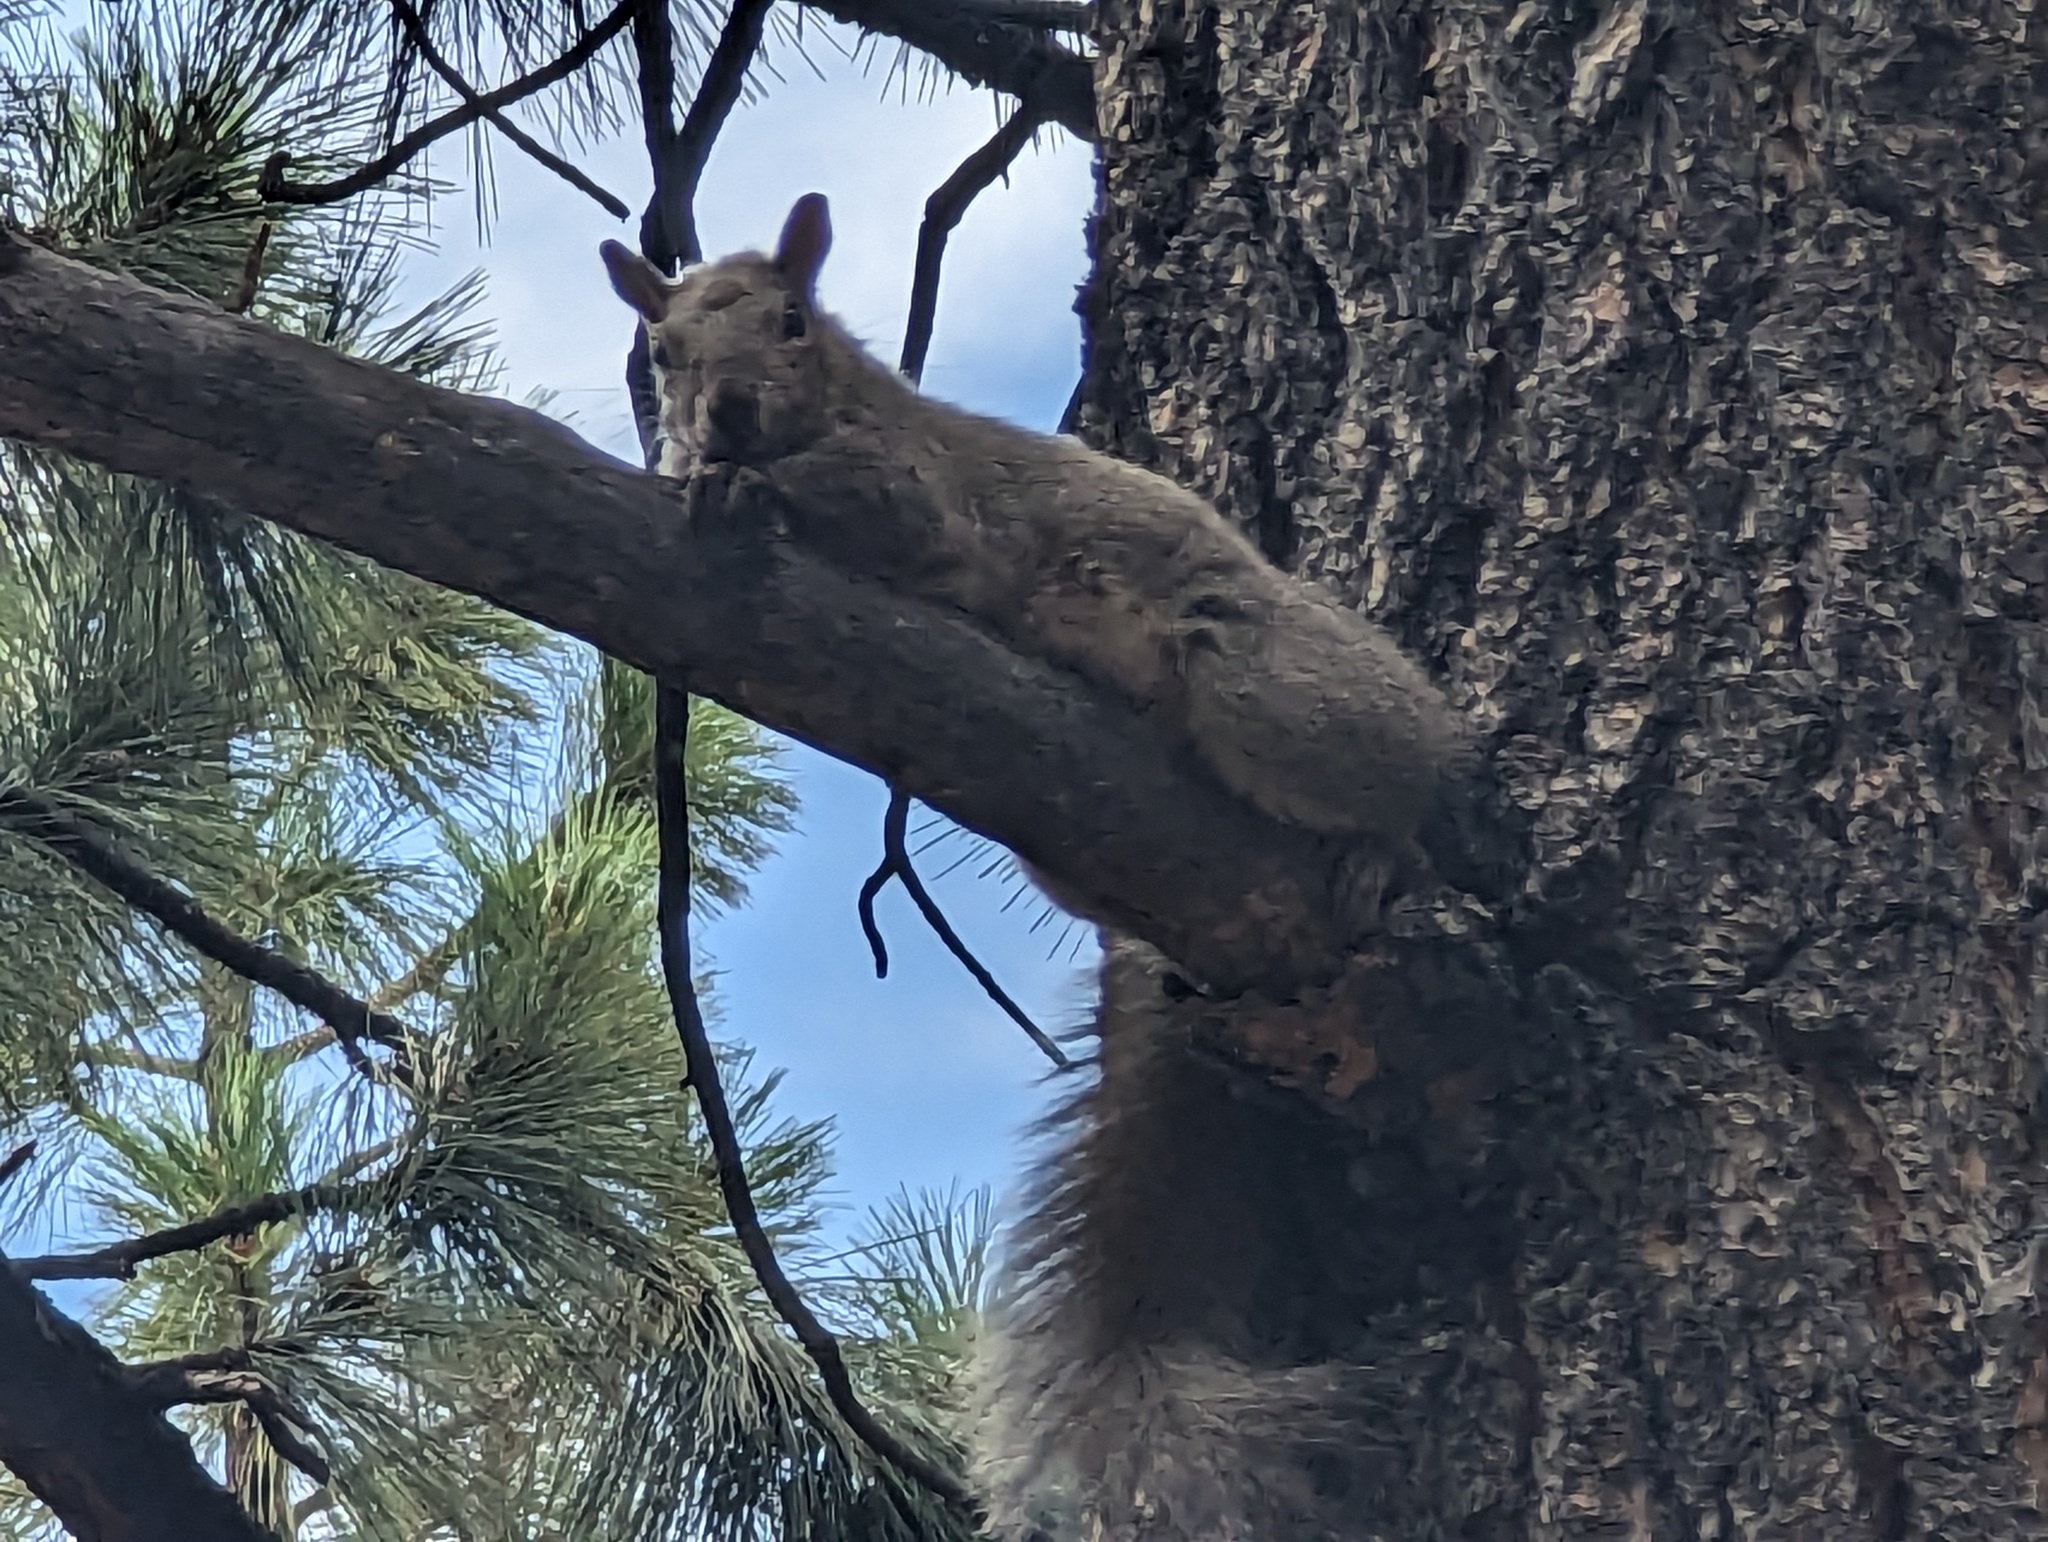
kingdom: Animalia
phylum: Chordata
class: Mammalia
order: Rodentia
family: Sciuridae
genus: Sciurus
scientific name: Sciurus griseus
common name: Western gray squirrel
